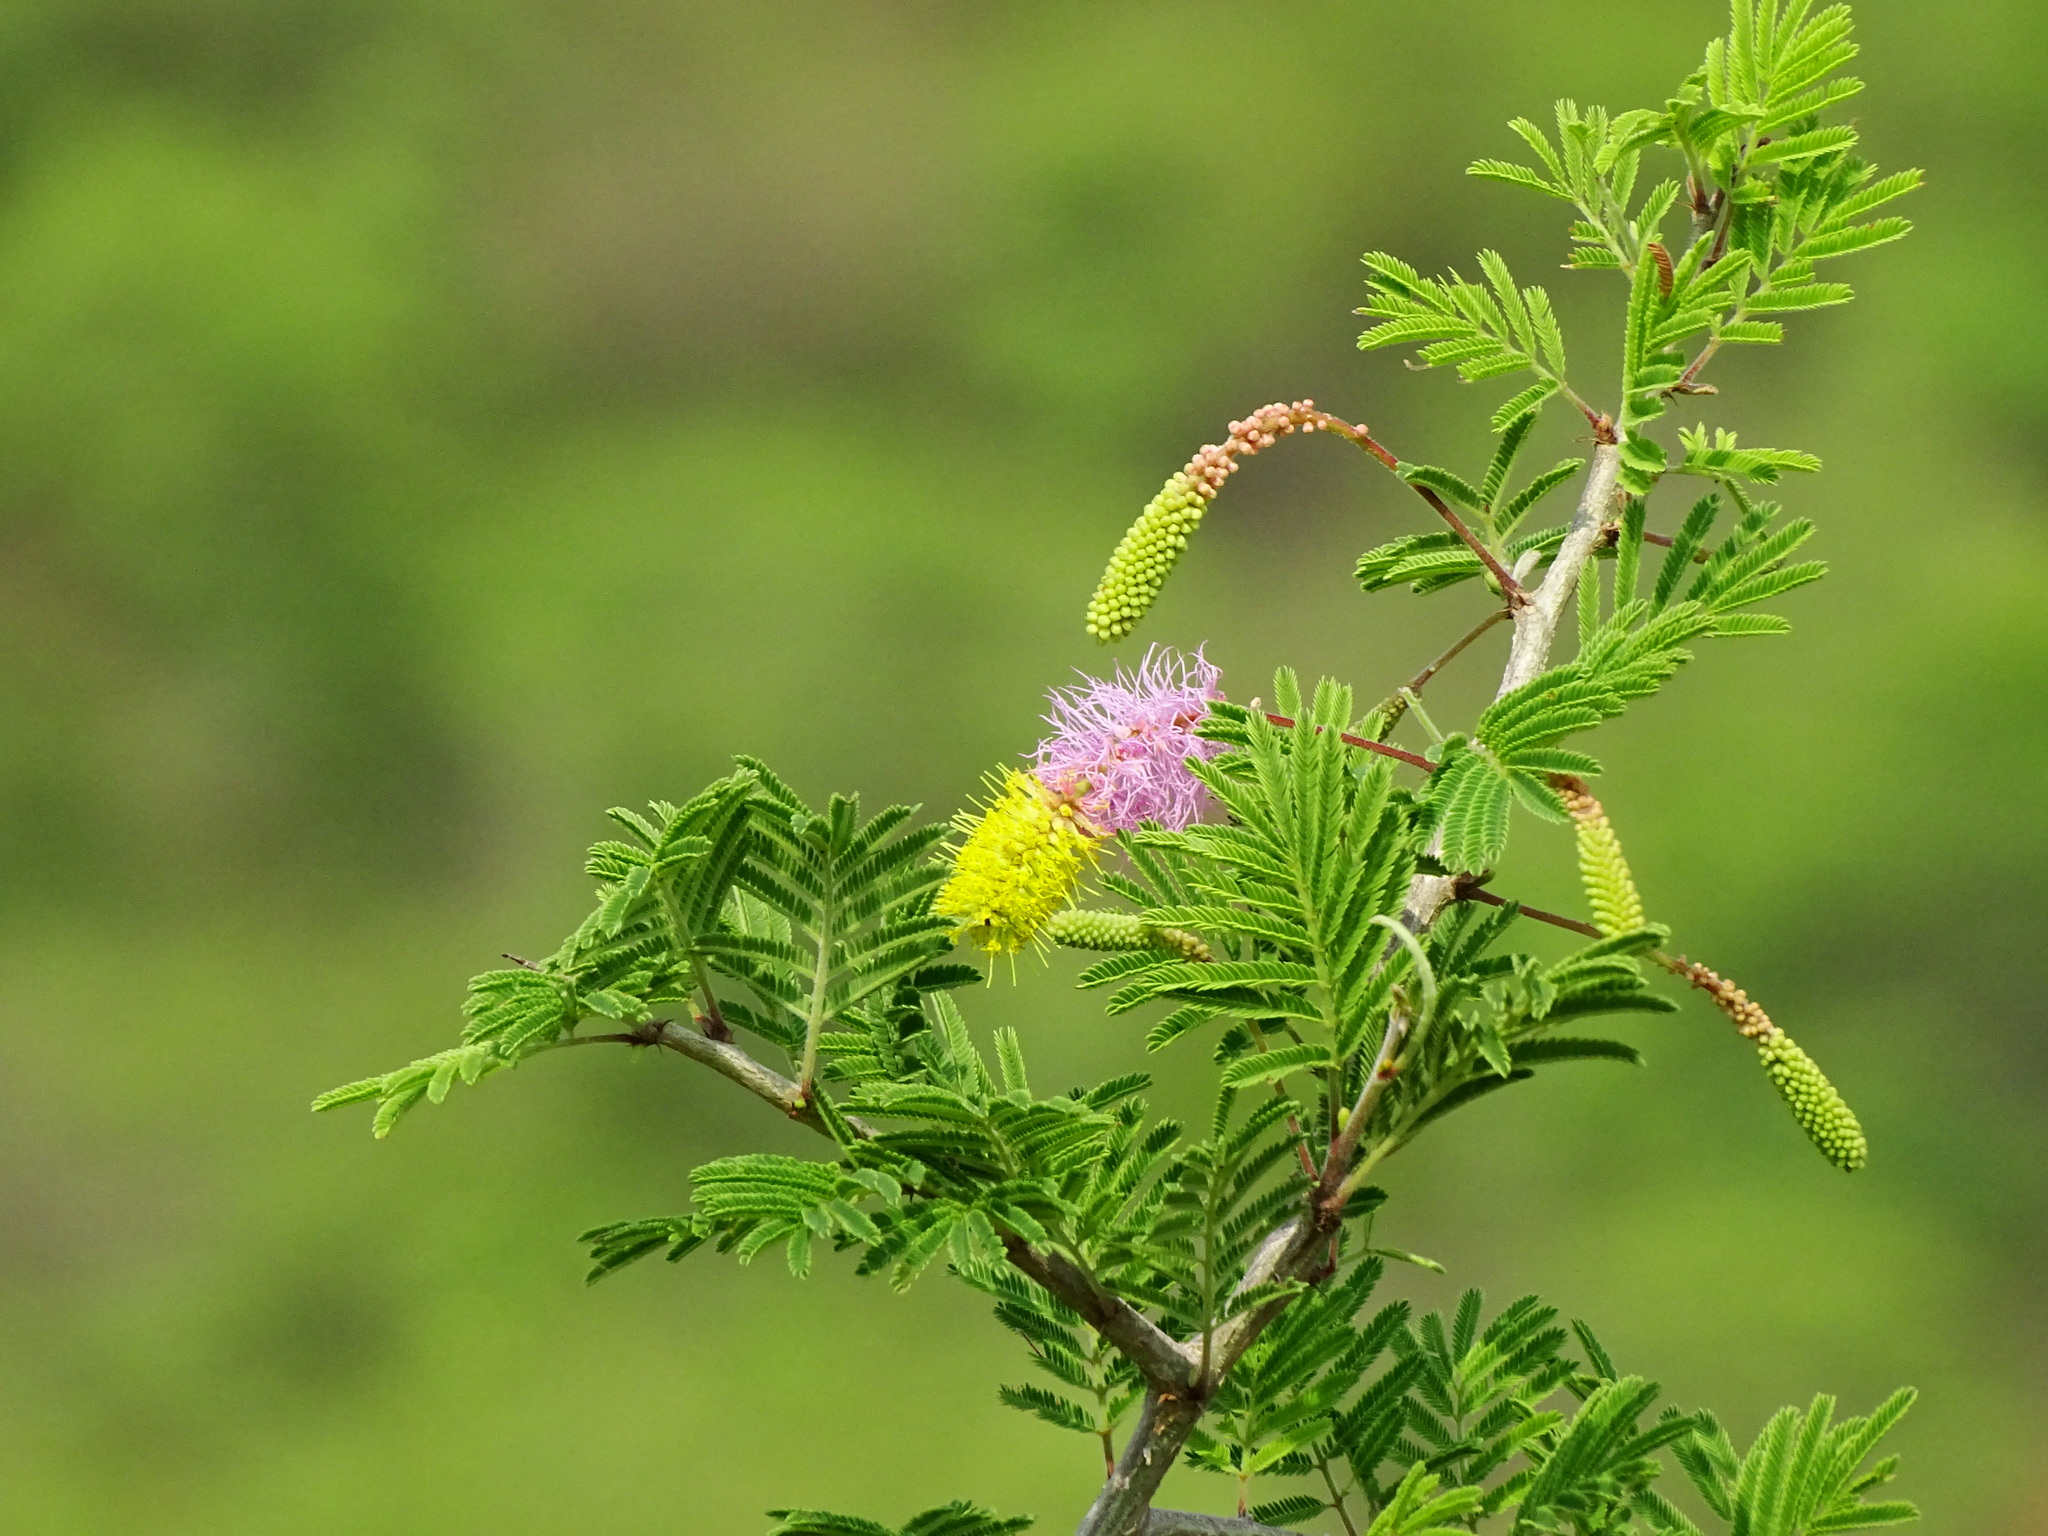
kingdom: Plantae
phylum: Tracheophyta
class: Magnoliopsida
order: Fabales
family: Fabaceae
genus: Dichrostachys
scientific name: Dichrostachys cinerea
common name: Sicklebush
